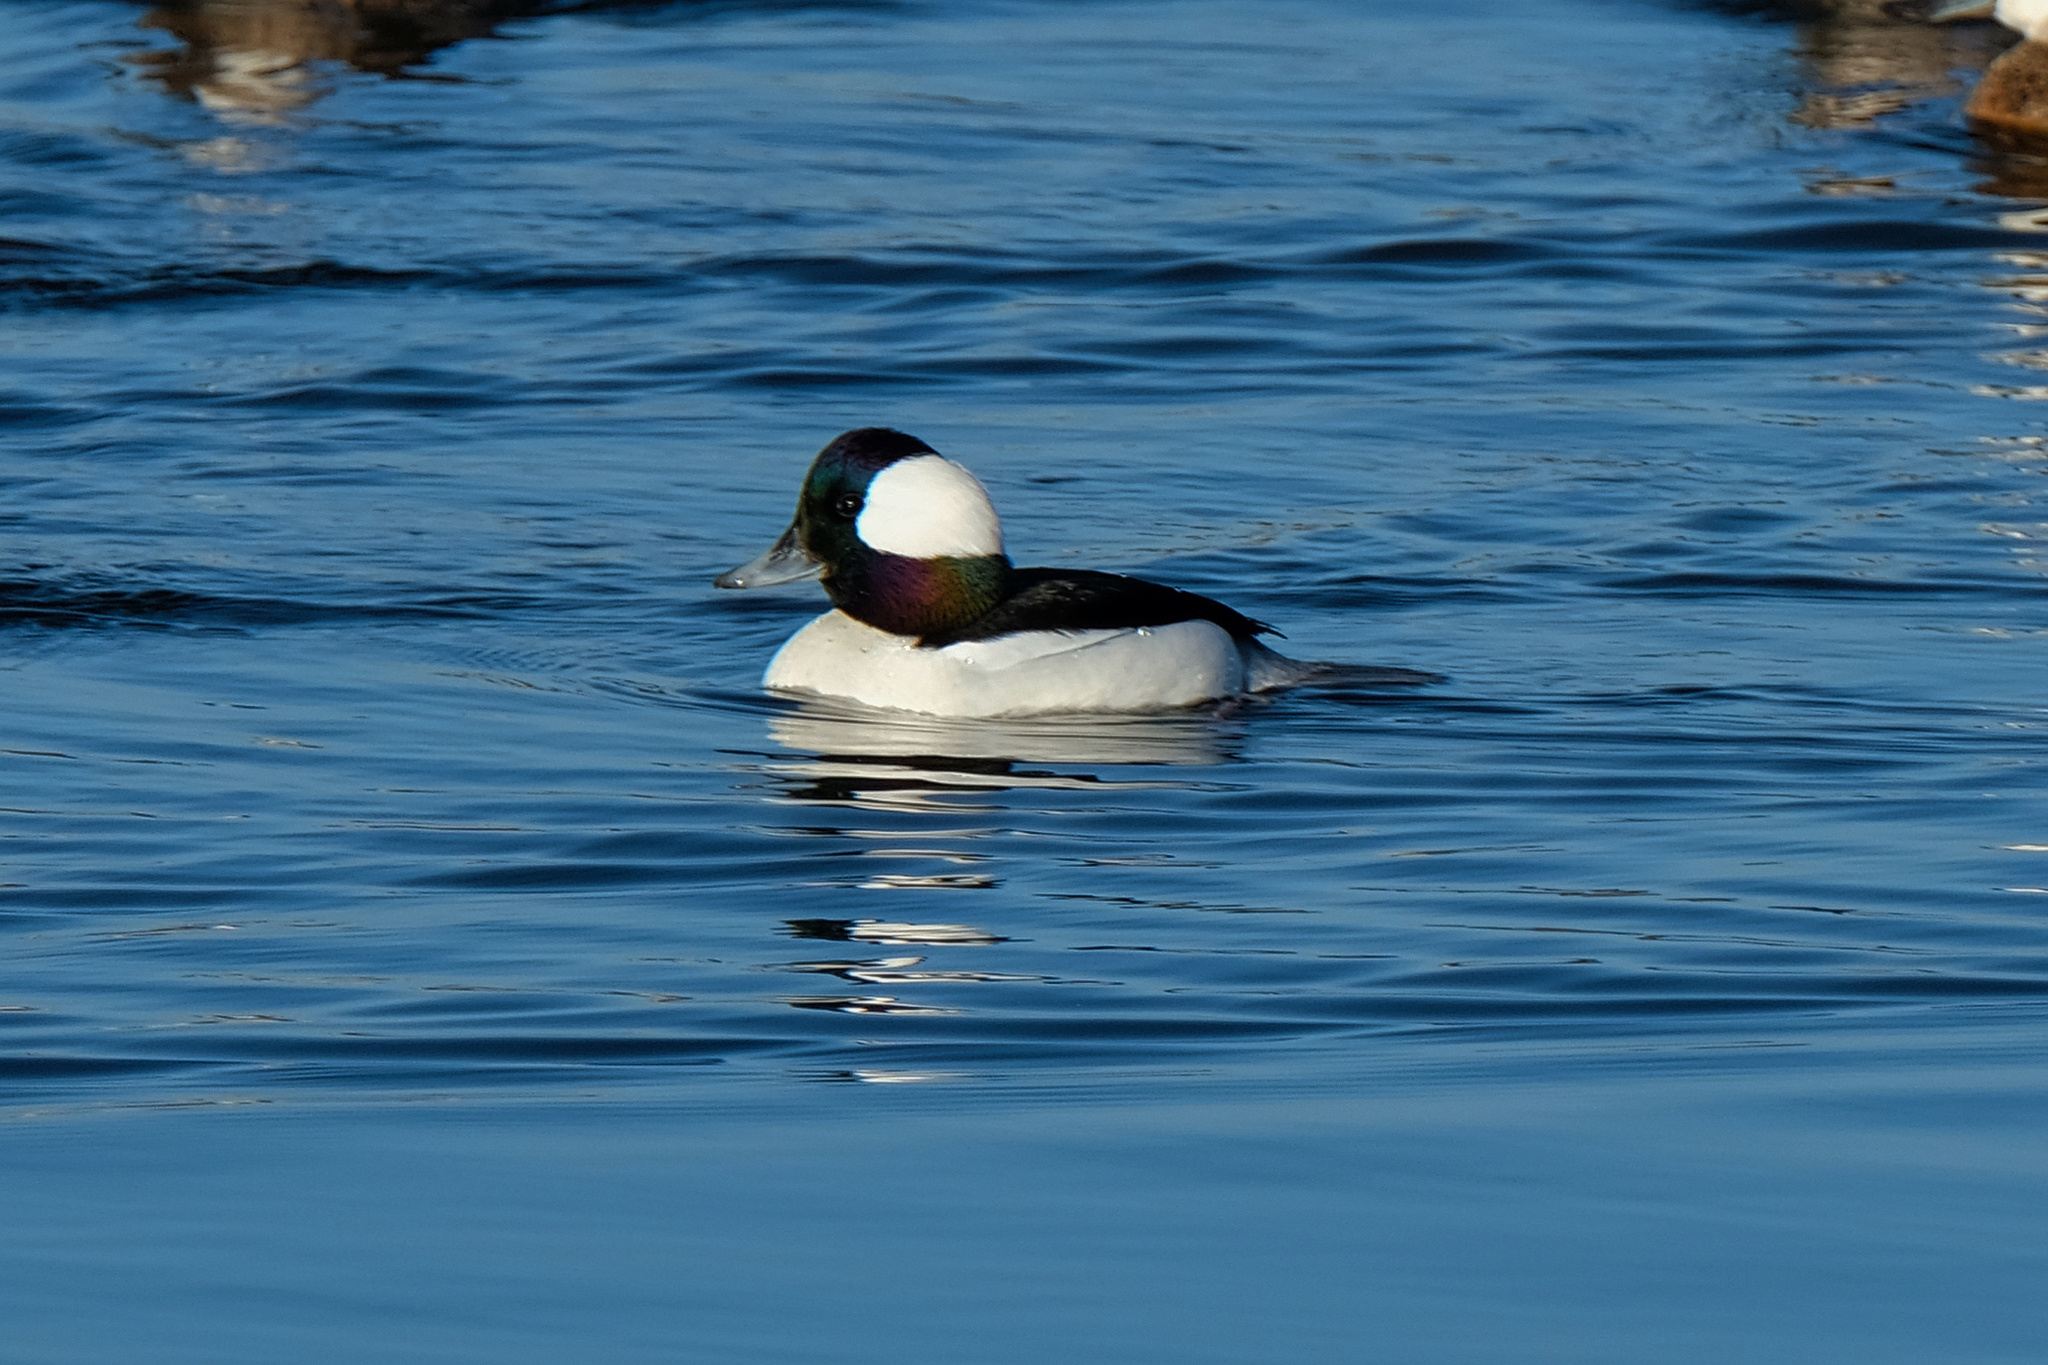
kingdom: Animalia
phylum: Chordata
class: Aves
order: Anseriformes
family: Anatidae
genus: Bucephala
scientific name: Bucephala albeola
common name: Bufflehead
